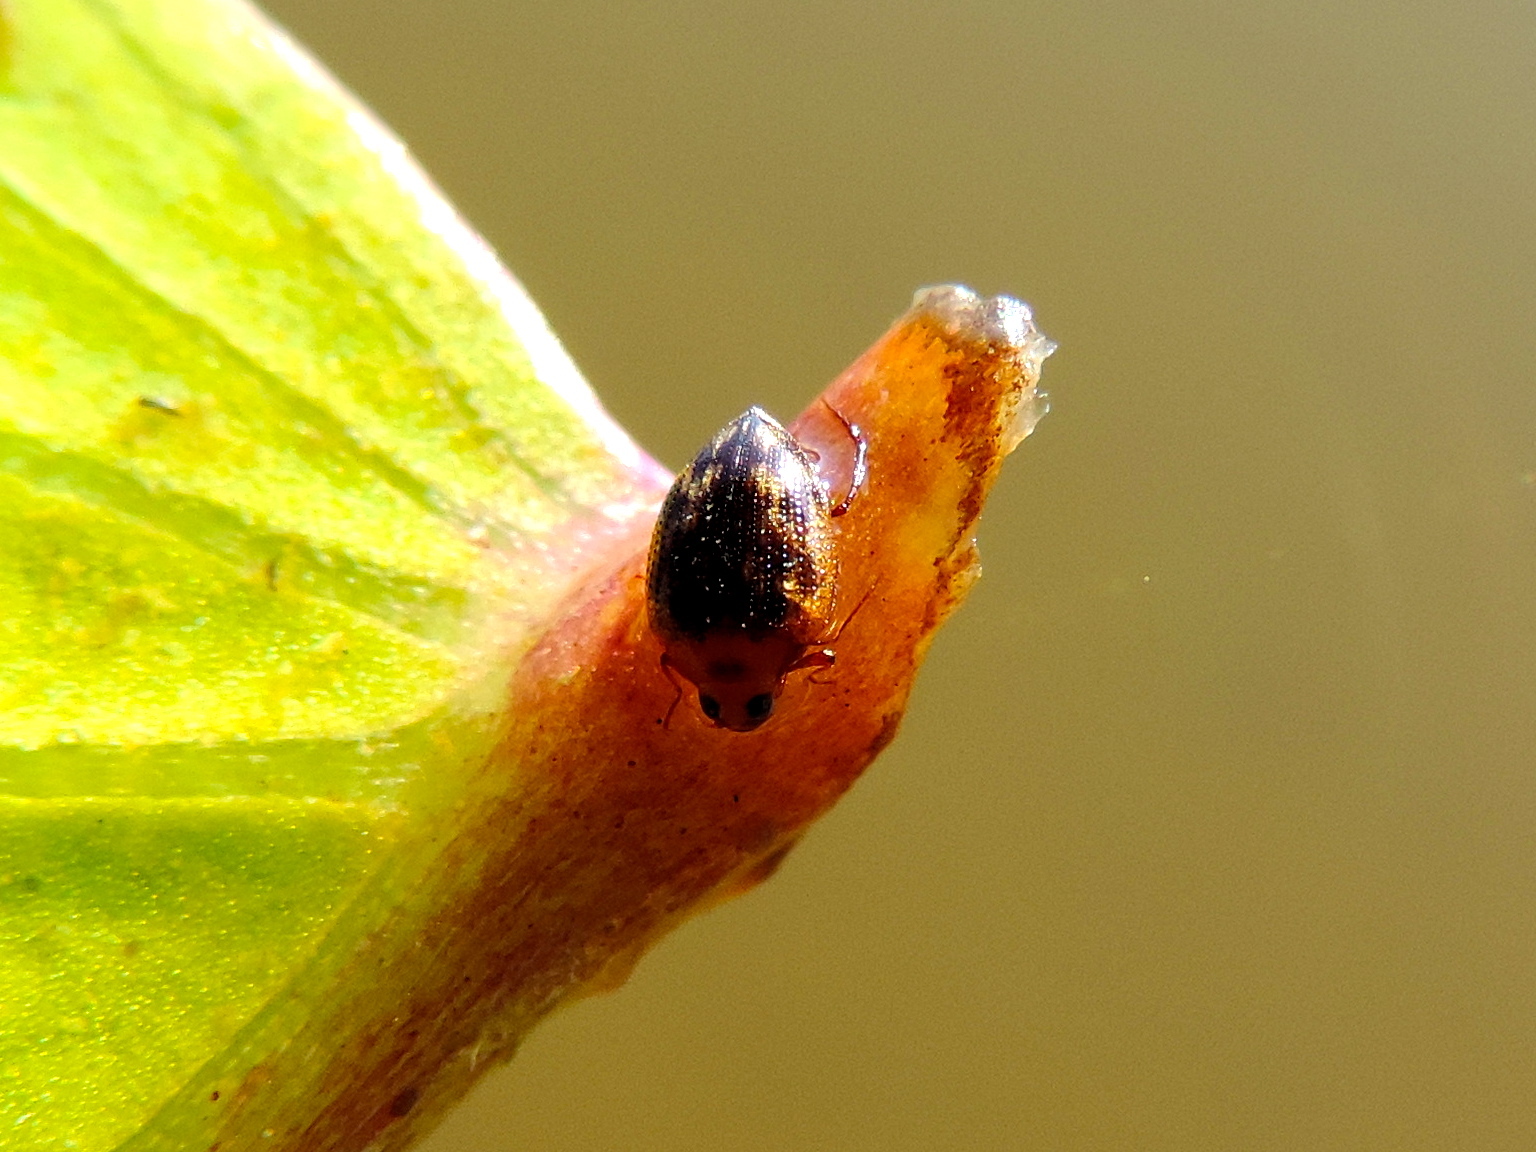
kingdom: Animalia
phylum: Arthropoda
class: Insecta
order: Coleoptera
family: Haliplidae
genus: Haliplus
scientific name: Haliplus
